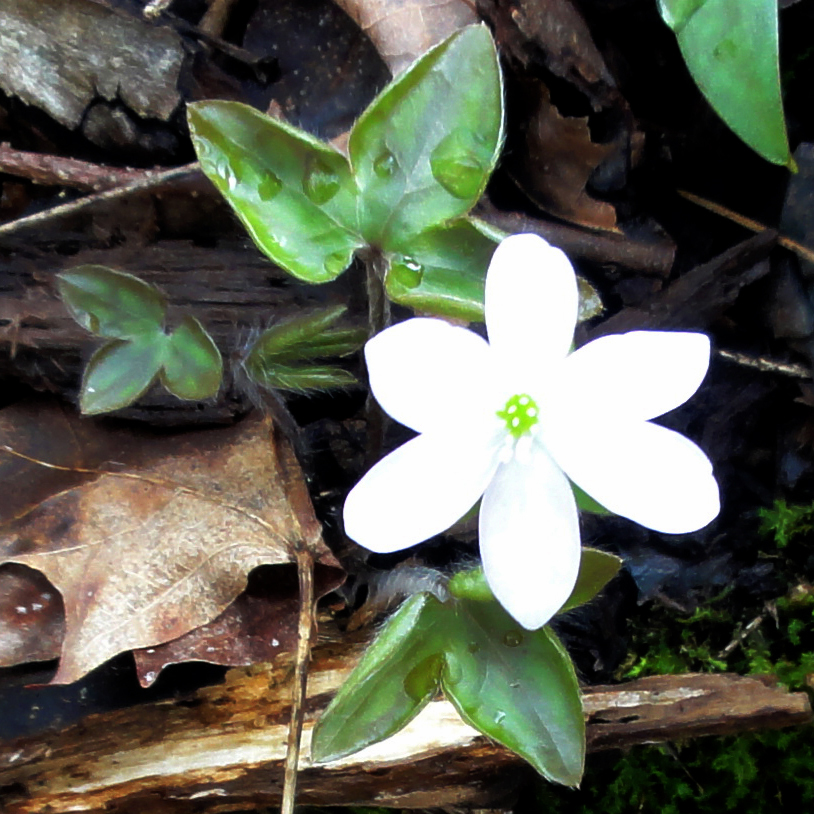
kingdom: Plantae
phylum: Tracheophyta
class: Magnoliopsida
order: Ranunculales
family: Ranunculaceae
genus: Hepatica
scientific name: Hepatica acutiloba
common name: Sharp-lobed hepatica
